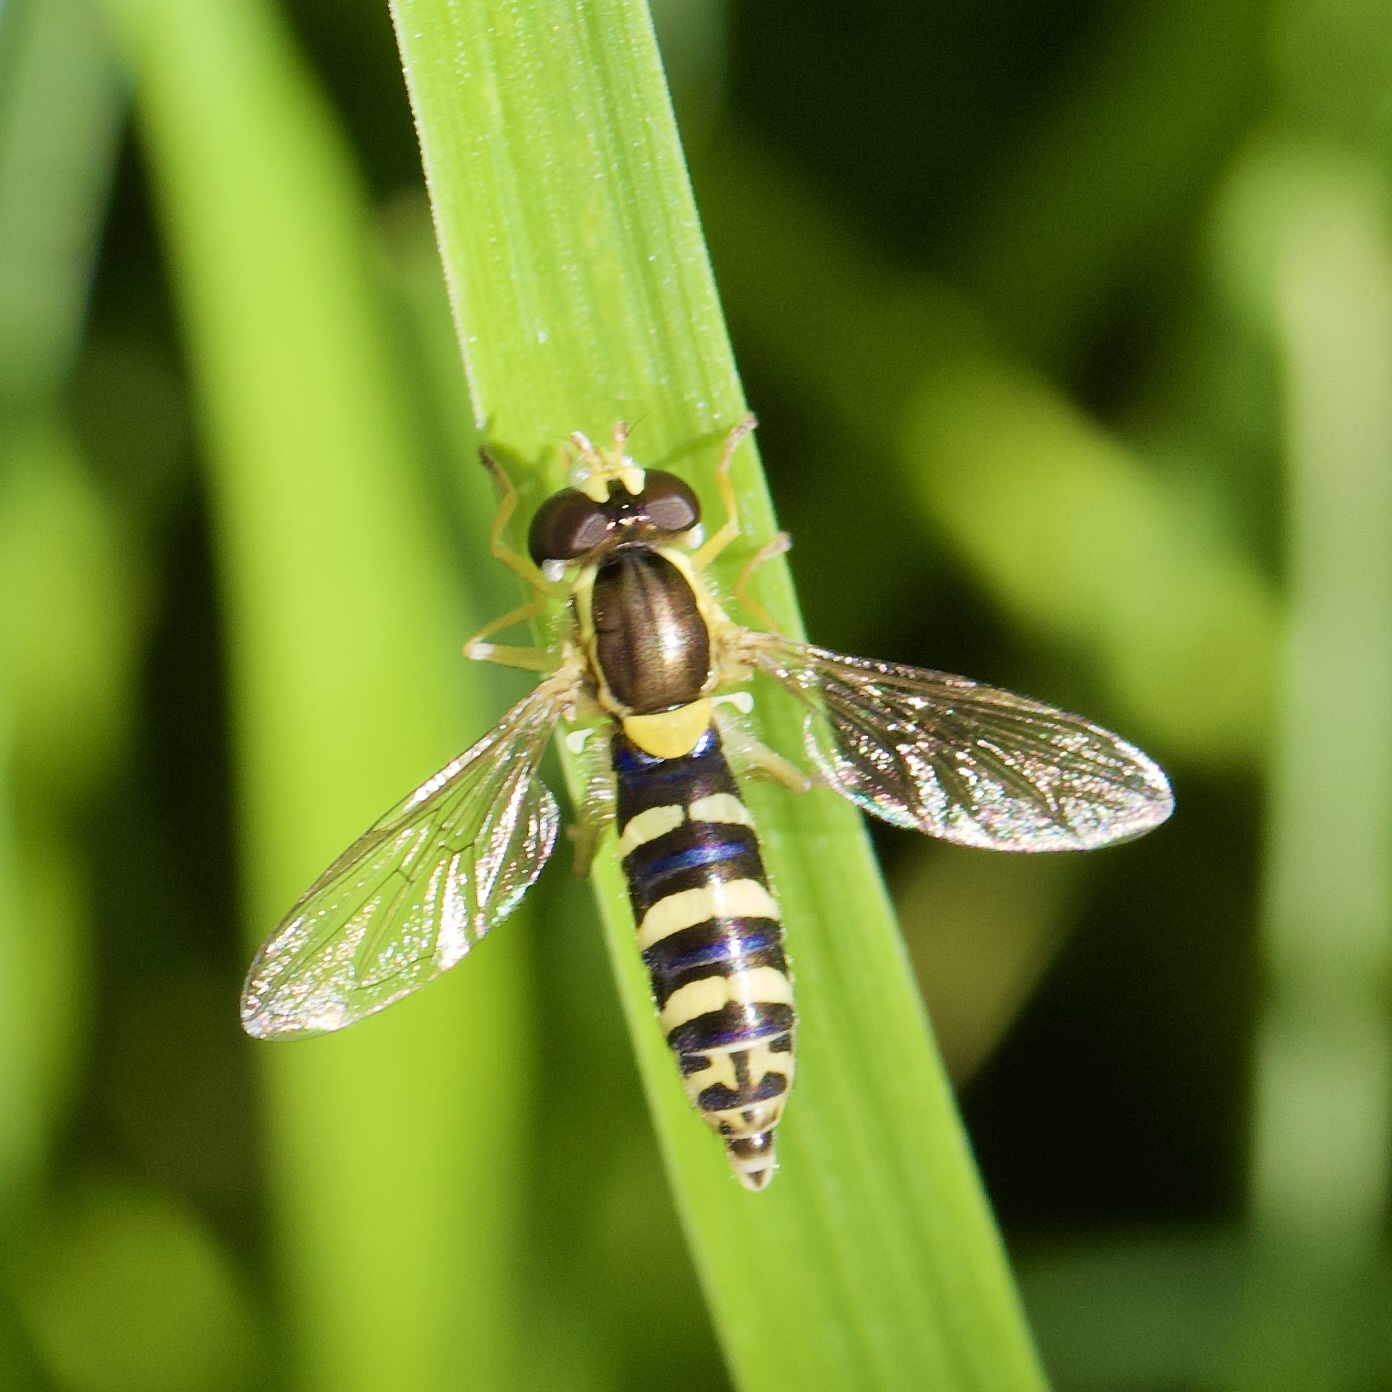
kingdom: Animalia
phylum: Arthropoda
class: Insecta
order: Diptera
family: Syrphidae
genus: Sphaerophoria
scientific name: Sphaerophoria
